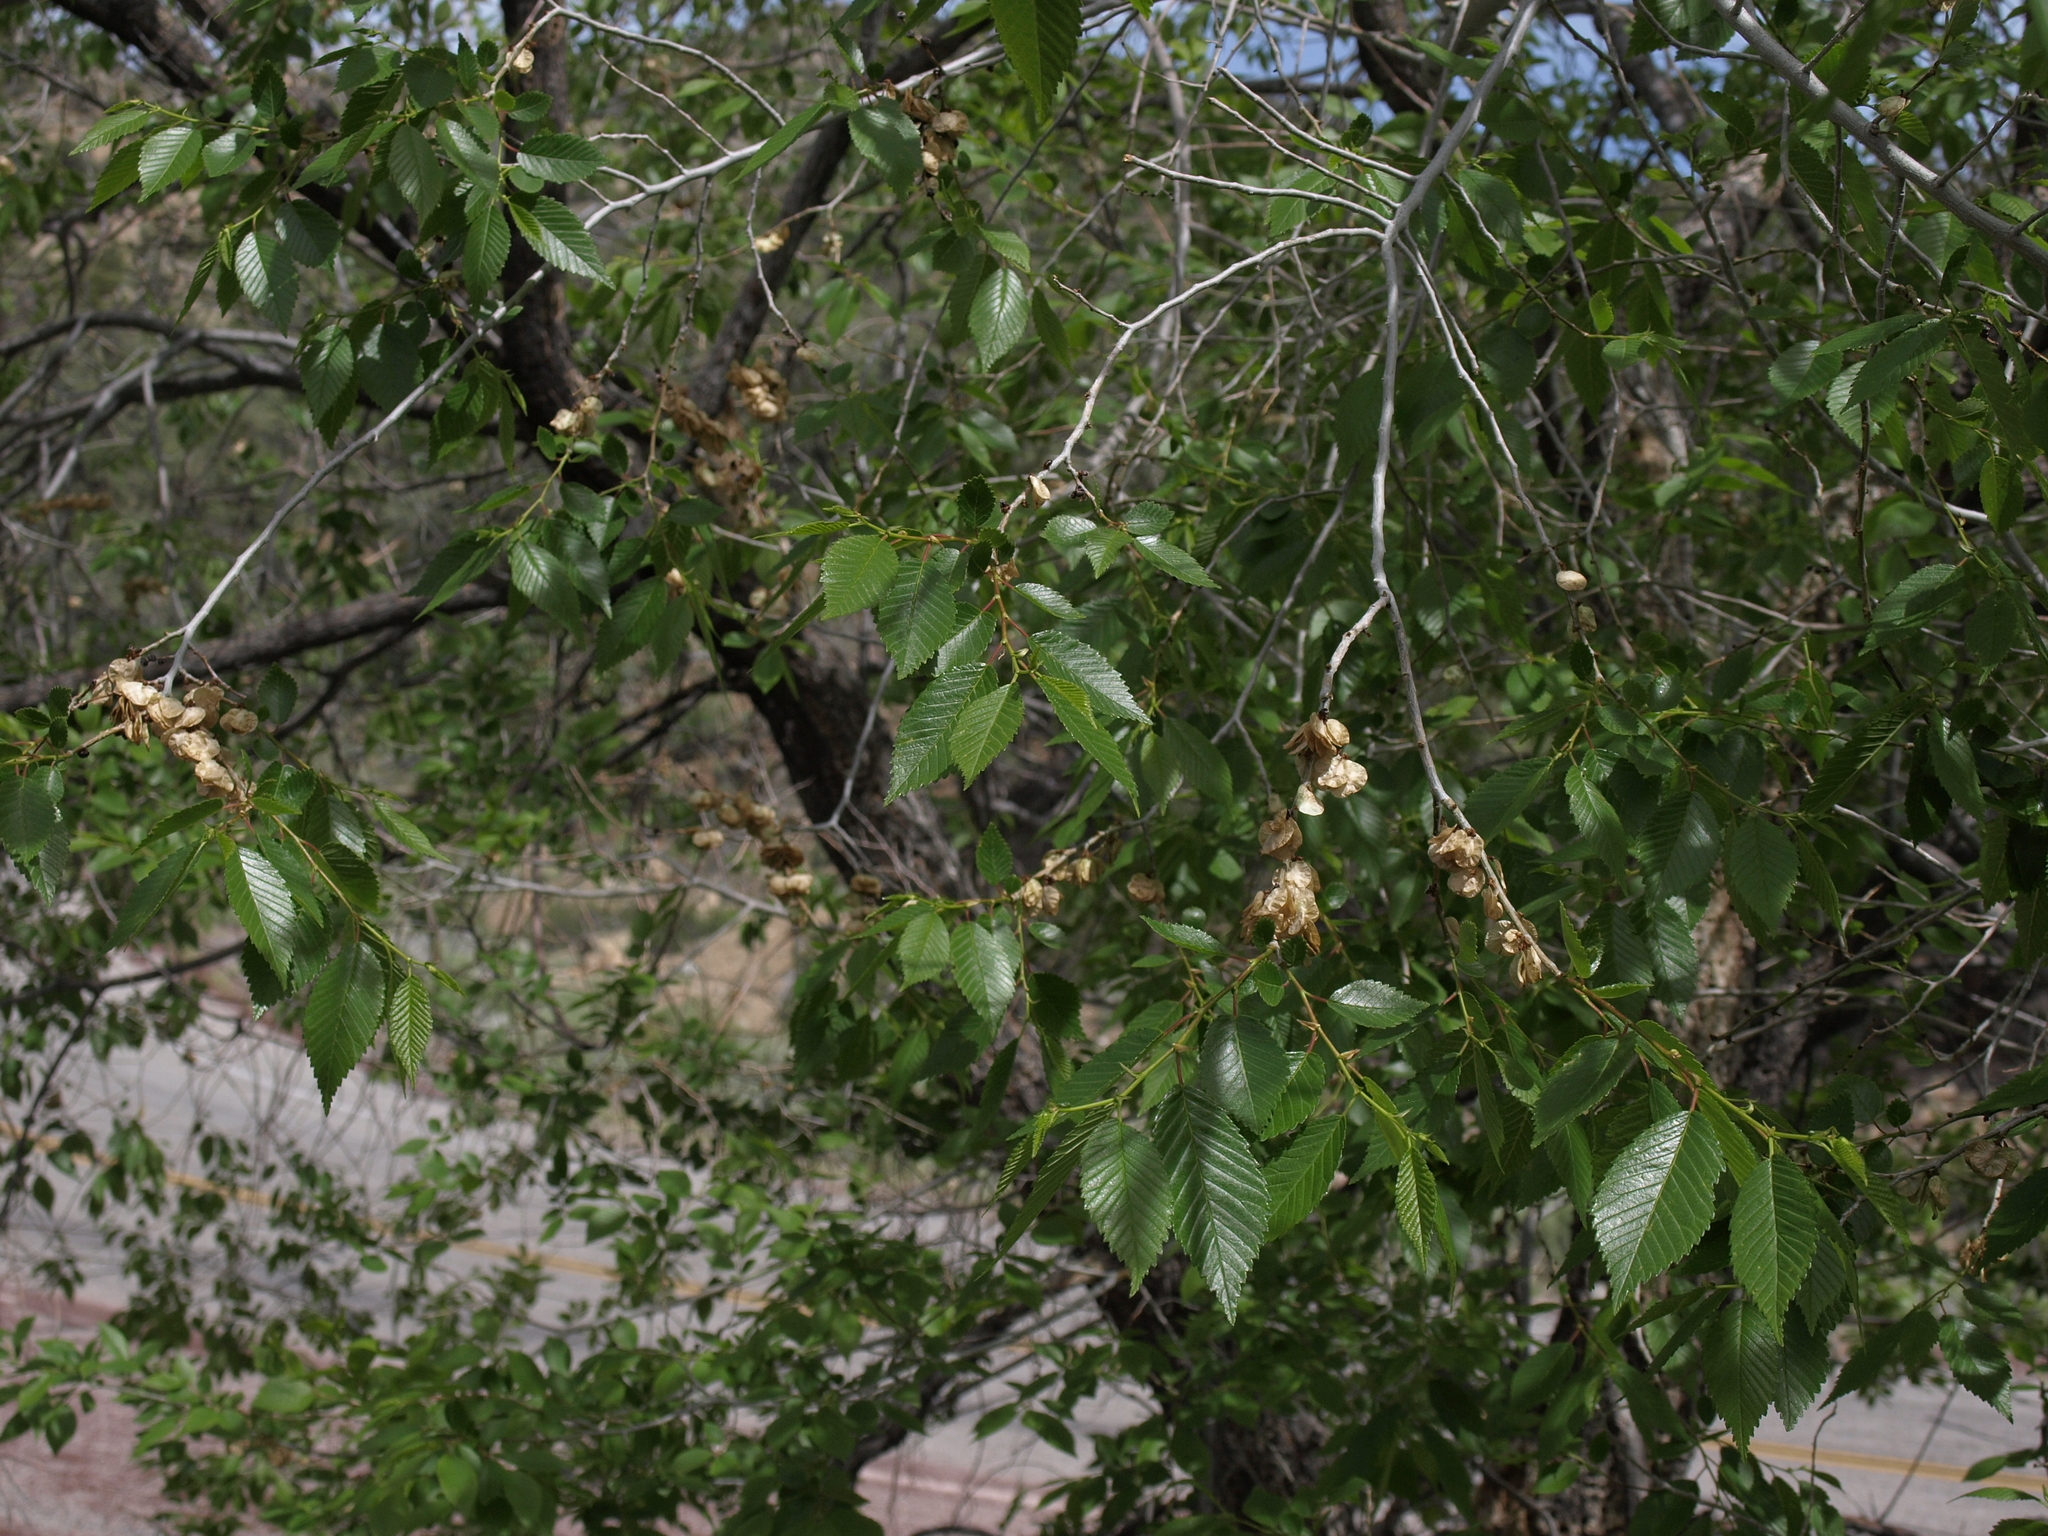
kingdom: Plantae
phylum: Tracheophyta
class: Magnoliopsida
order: Rosales
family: Ulmaceae
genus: Ulmus
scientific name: Ulmus pumila
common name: Siberian elm
